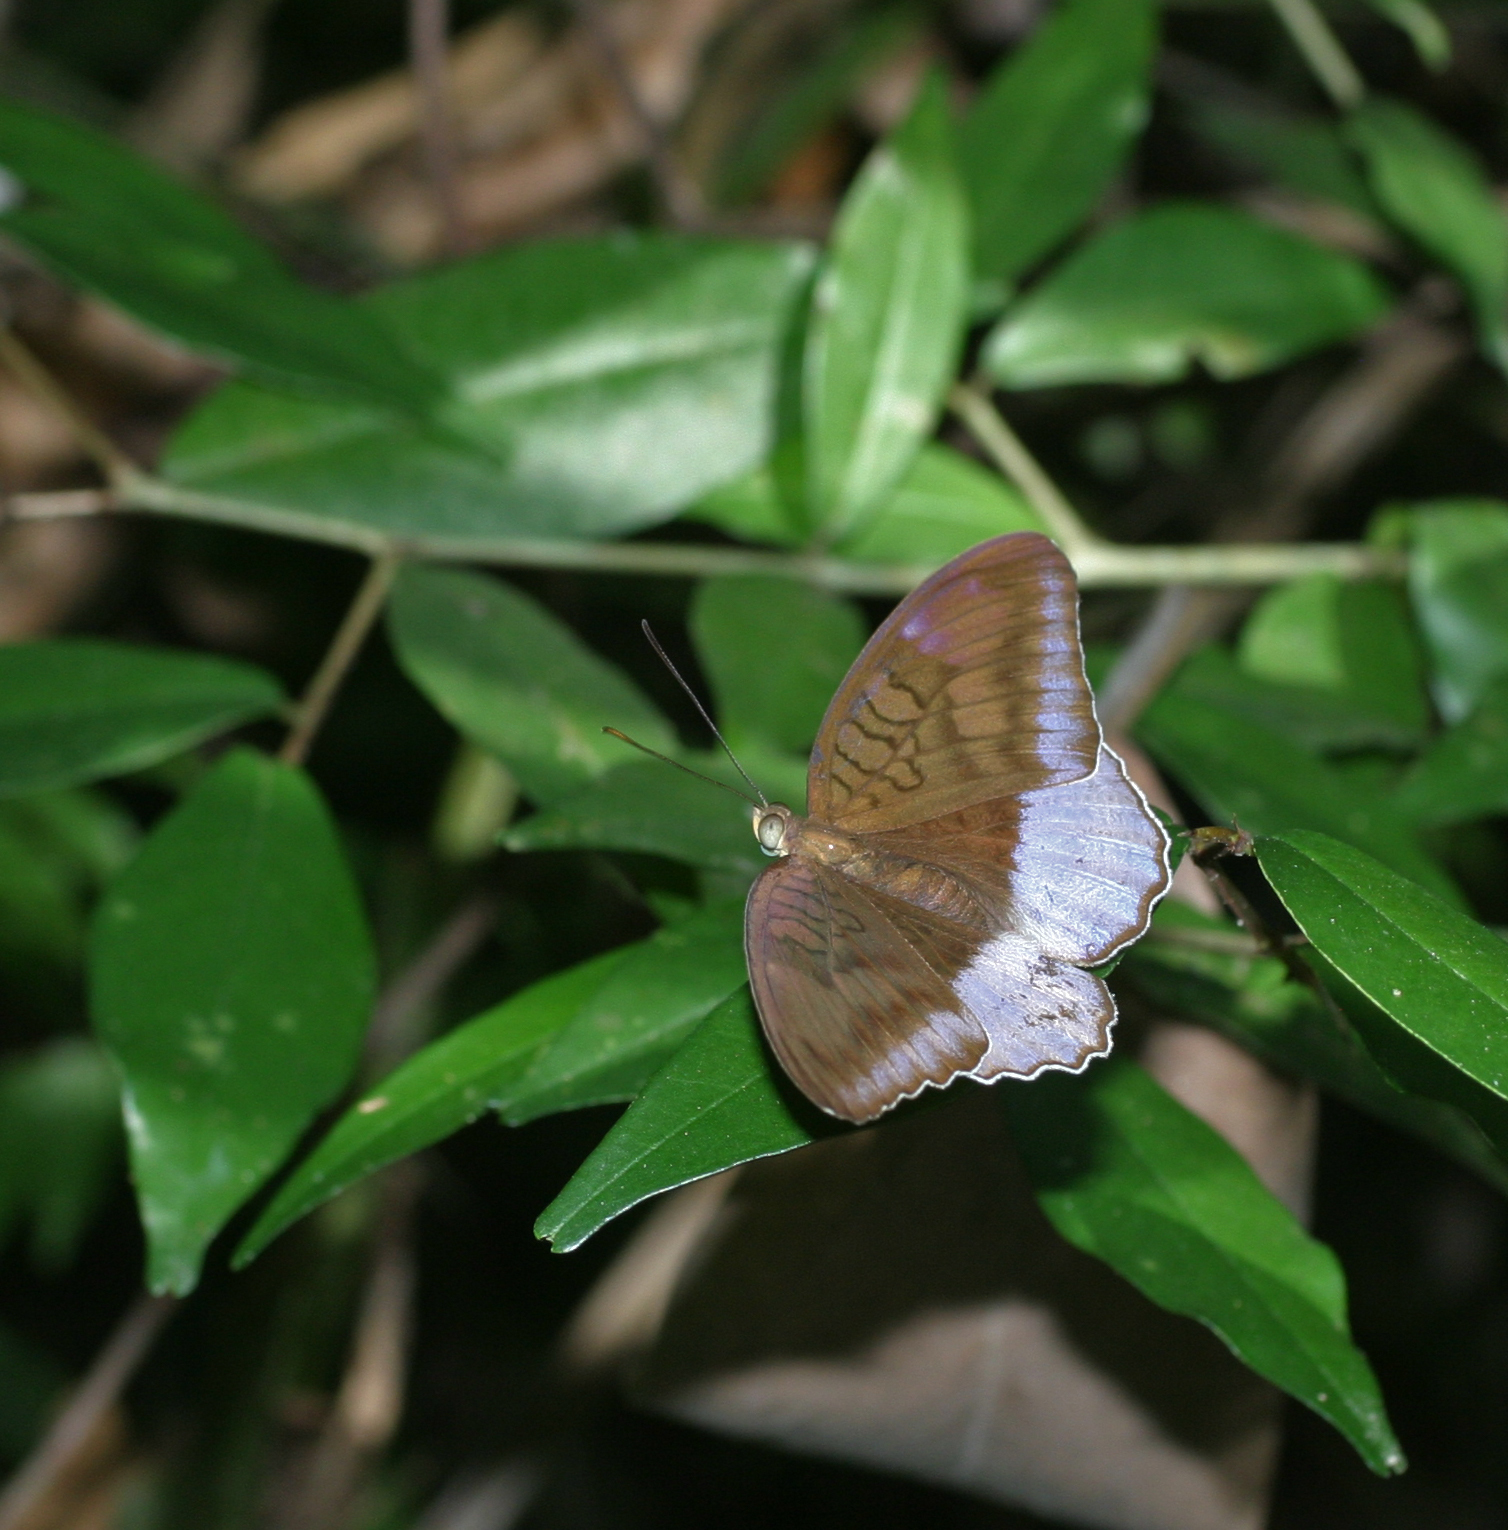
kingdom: Animalia
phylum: Arthropoda
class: Insecta
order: Lepidoptera
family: Nymphalidae
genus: Tanaecia
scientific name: Tanaecia flora
